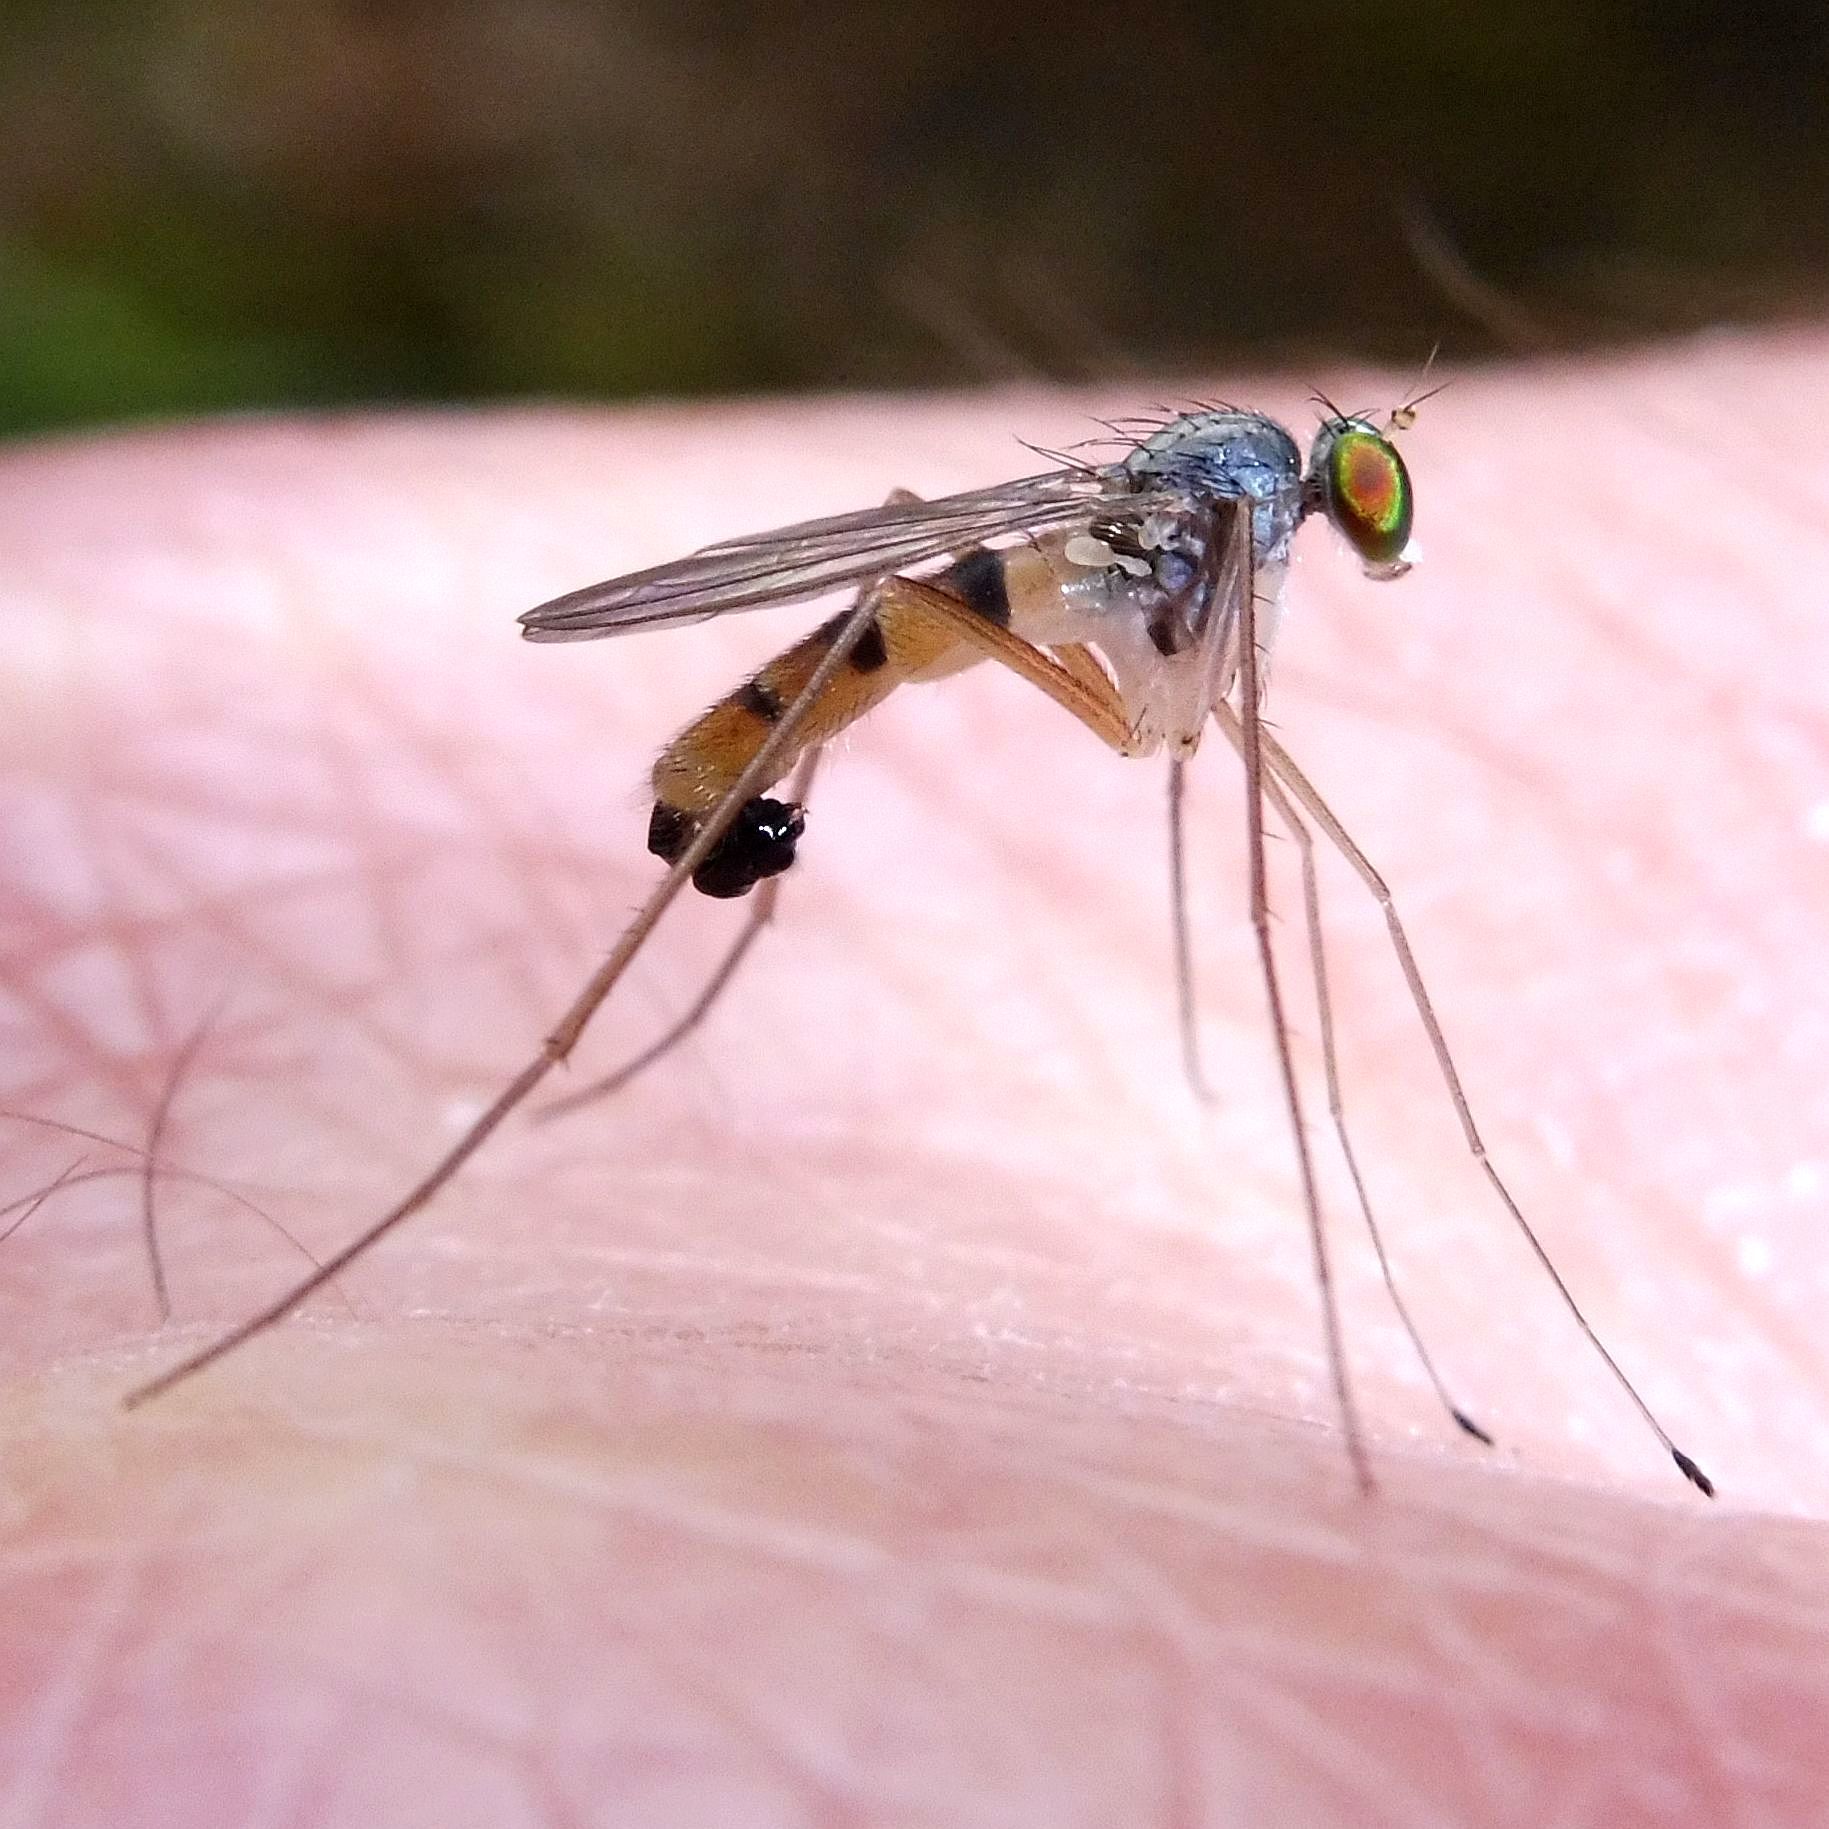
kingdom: Animalia
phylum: Arthropoda
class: Insecta
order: Diptera
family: Dolichopodidae
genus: Neurigona
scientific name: Neurigona quadrifasciata
